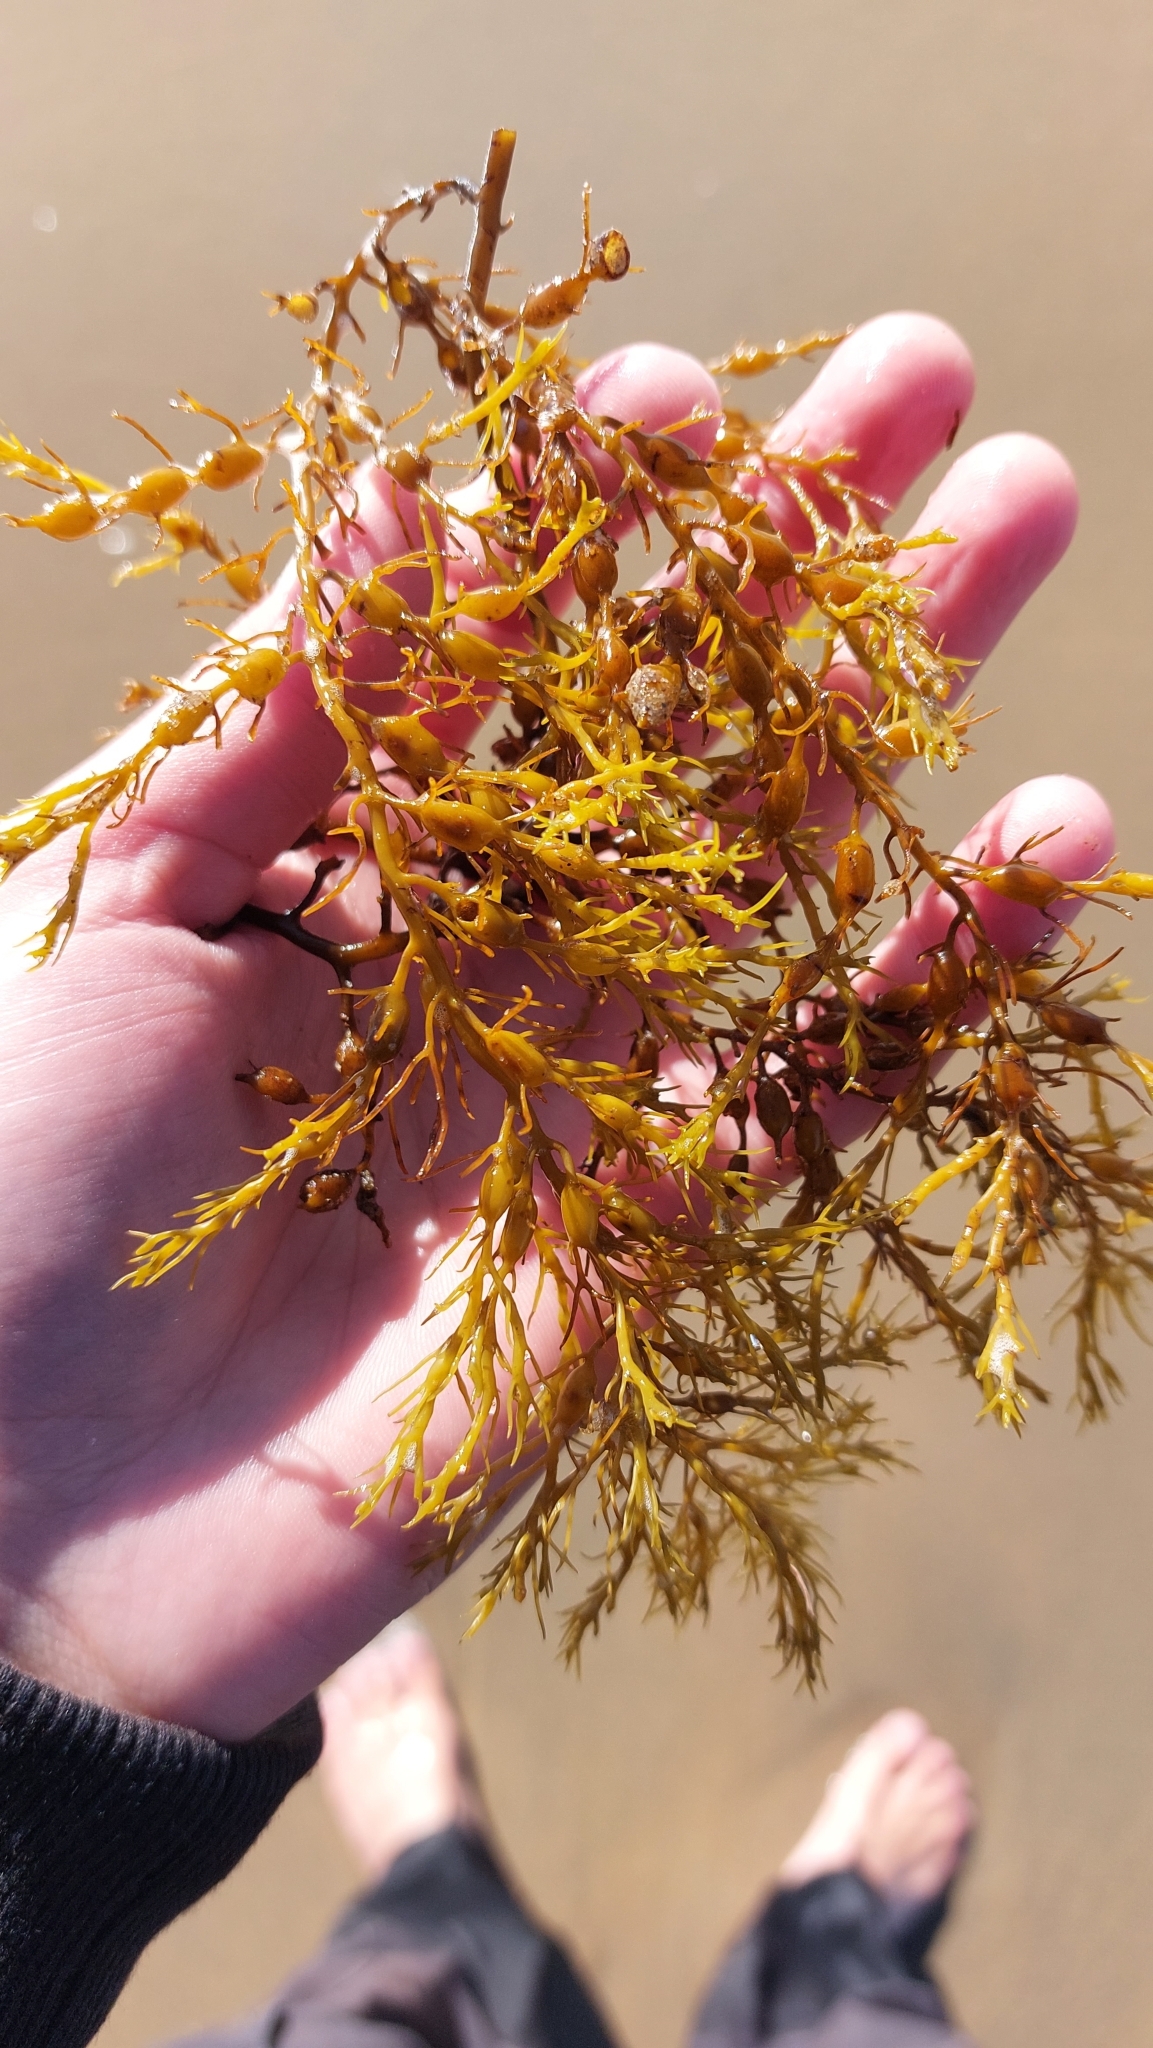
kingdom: Chromista
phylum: Ochrophyta
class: Phaeophyceae
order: Fucales
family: Sargassaceae
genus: Cystoseira
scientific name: Cystoseira Gongolaria baccata
